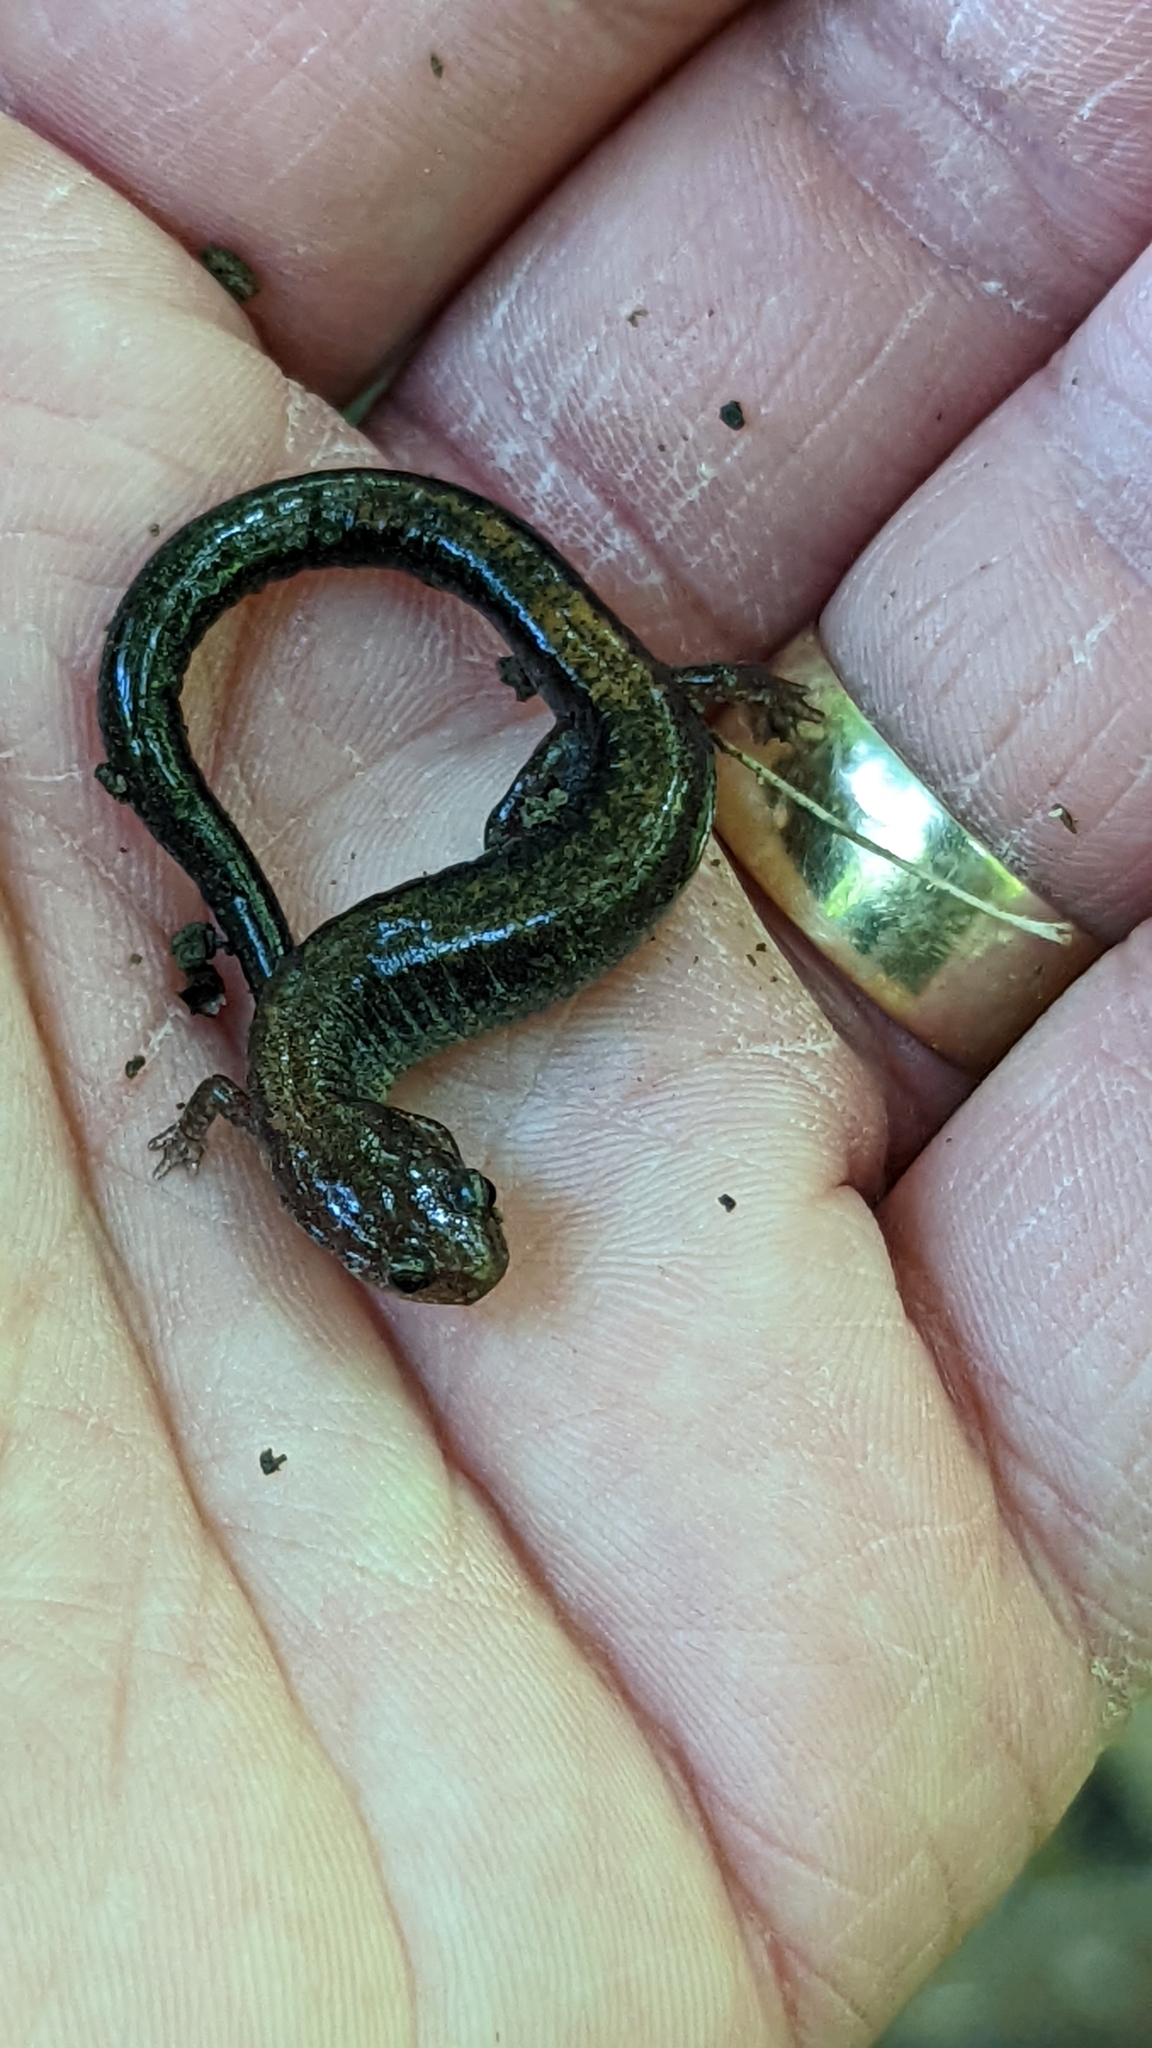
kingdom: Animalia
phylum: Chordata
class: Amphibia
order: Caudata
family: Plethodontidae
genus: Plethodon
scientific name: Plethodon cinereus
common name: Redback salamander
